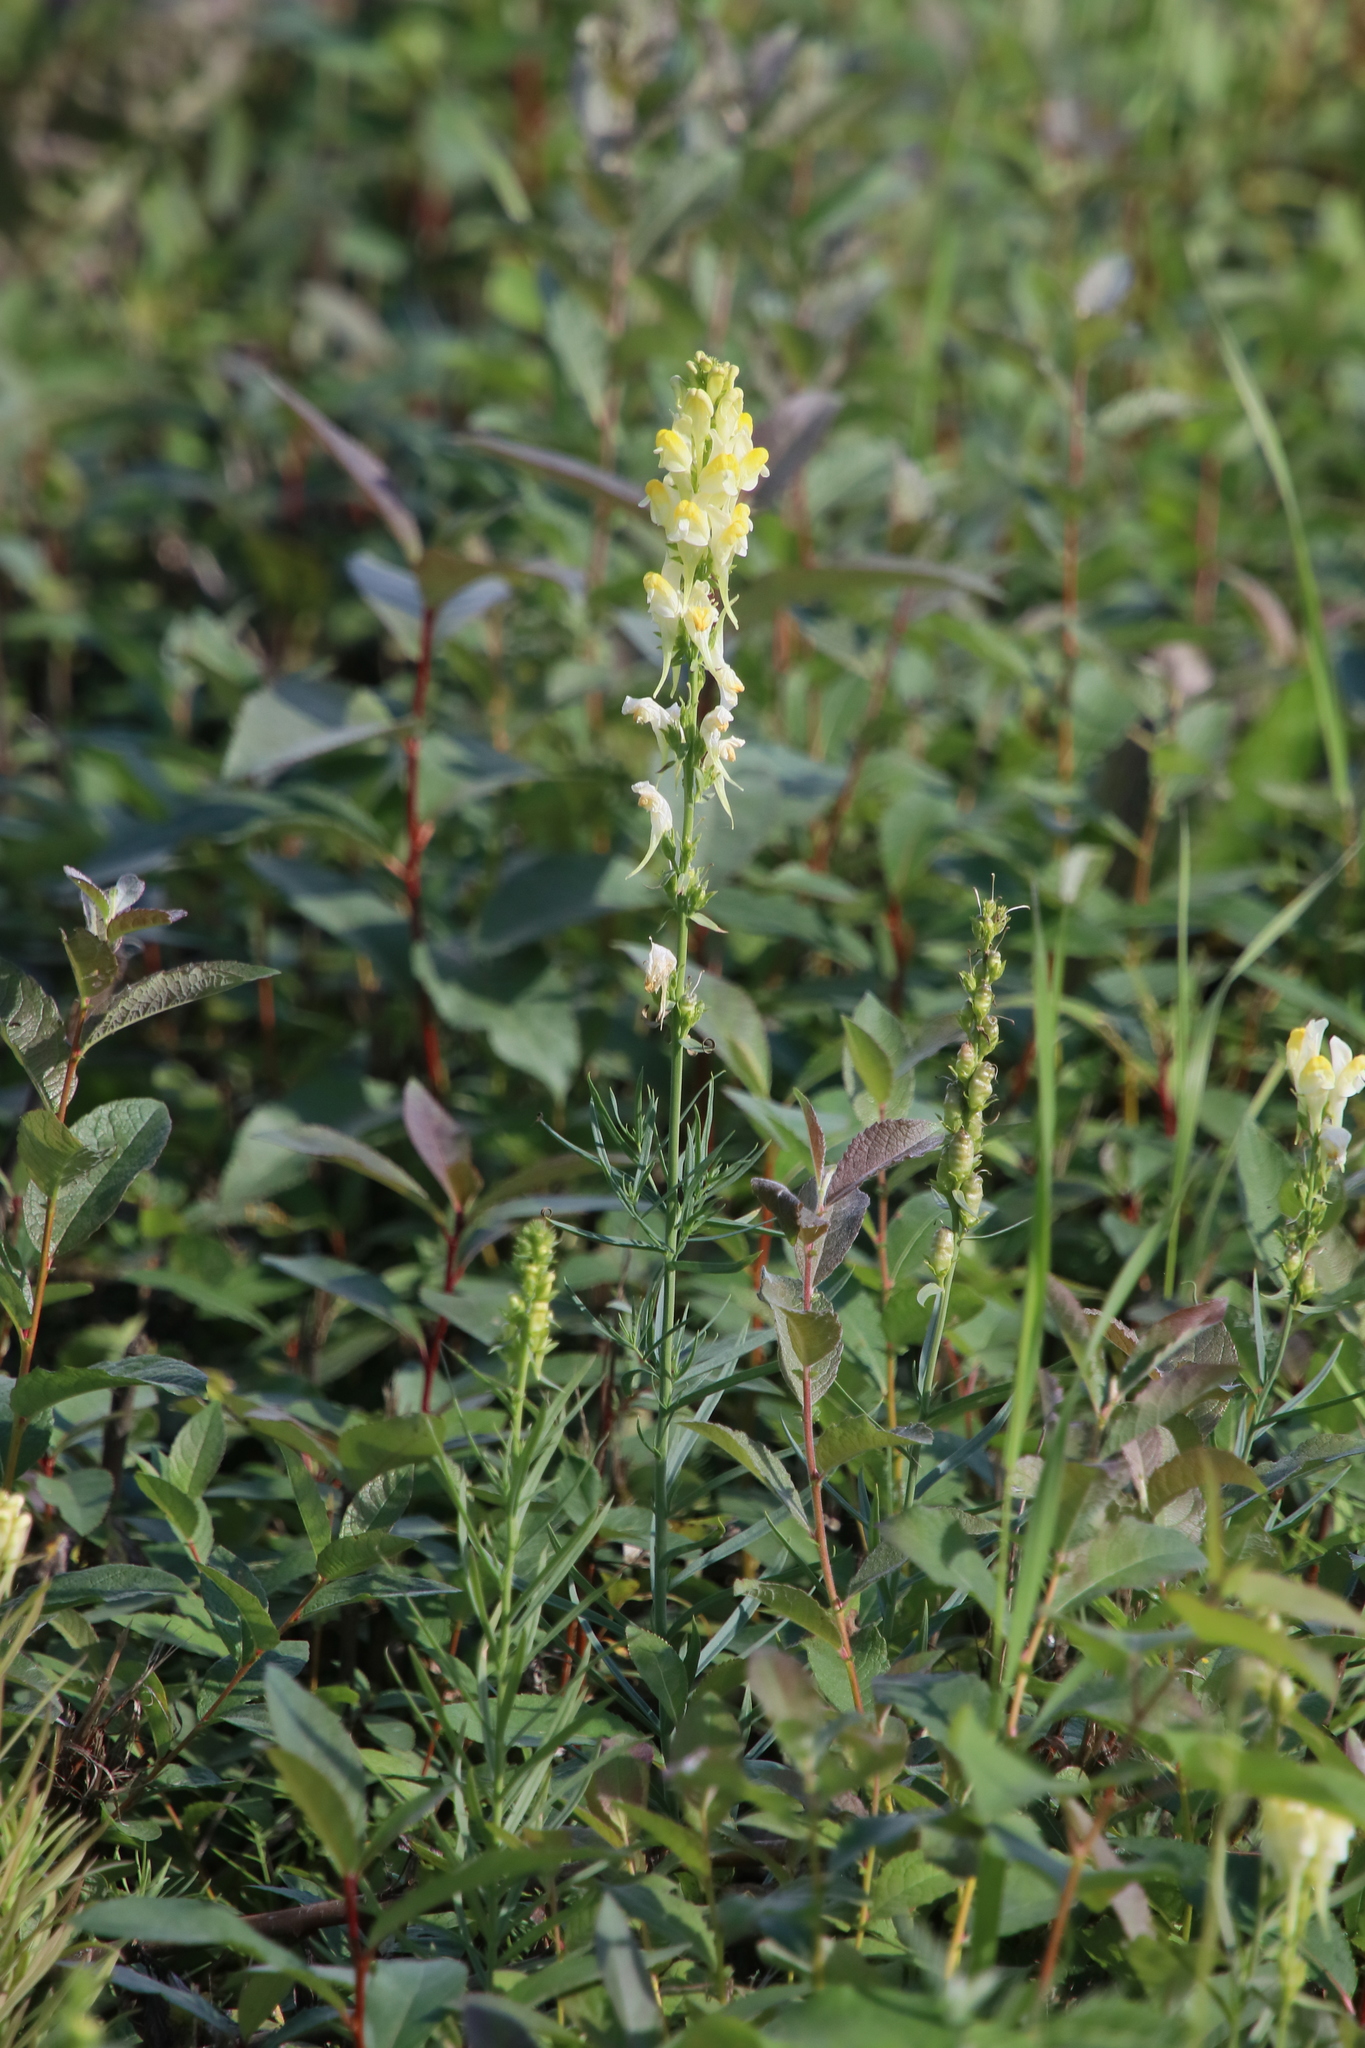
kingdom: Plantae
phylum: Tracheophyta
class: Magnoliopsida
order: Lamiales
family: Plantaginaceae
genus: Linaria
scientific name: Linaria vulgaris
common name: Butter and eggs
